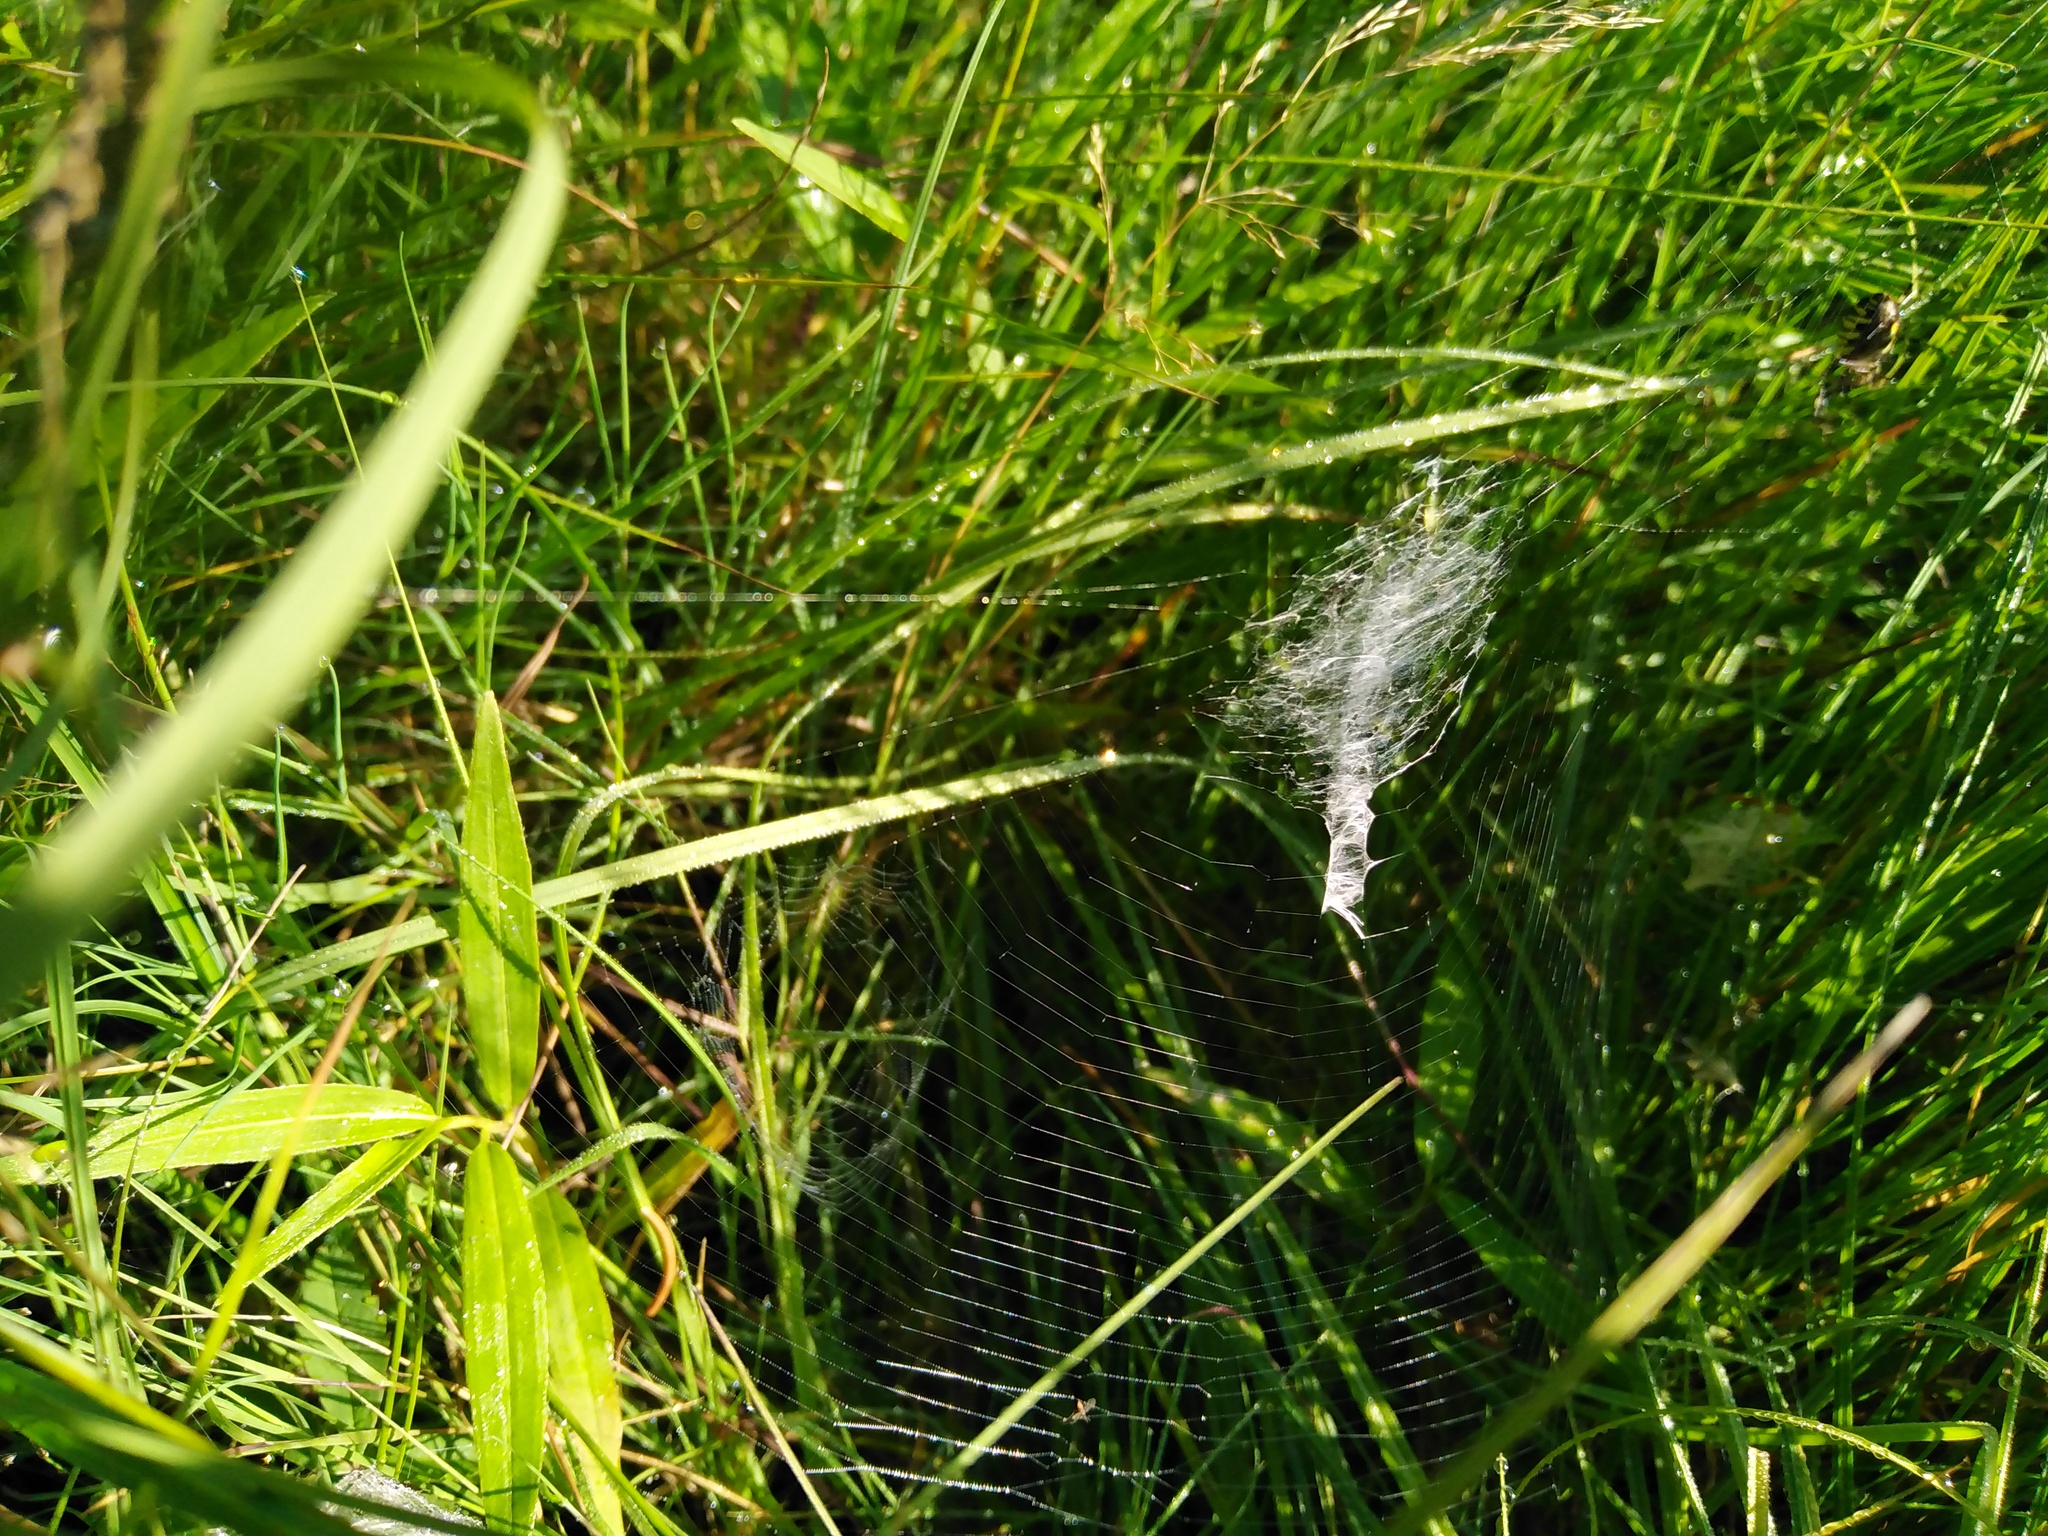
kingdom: Animalia
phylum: Arthropoda
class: Arachnida
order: Araneae
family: Araneidae
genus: Argiope
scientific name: Argiope bruennichi
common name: Wasp spider
